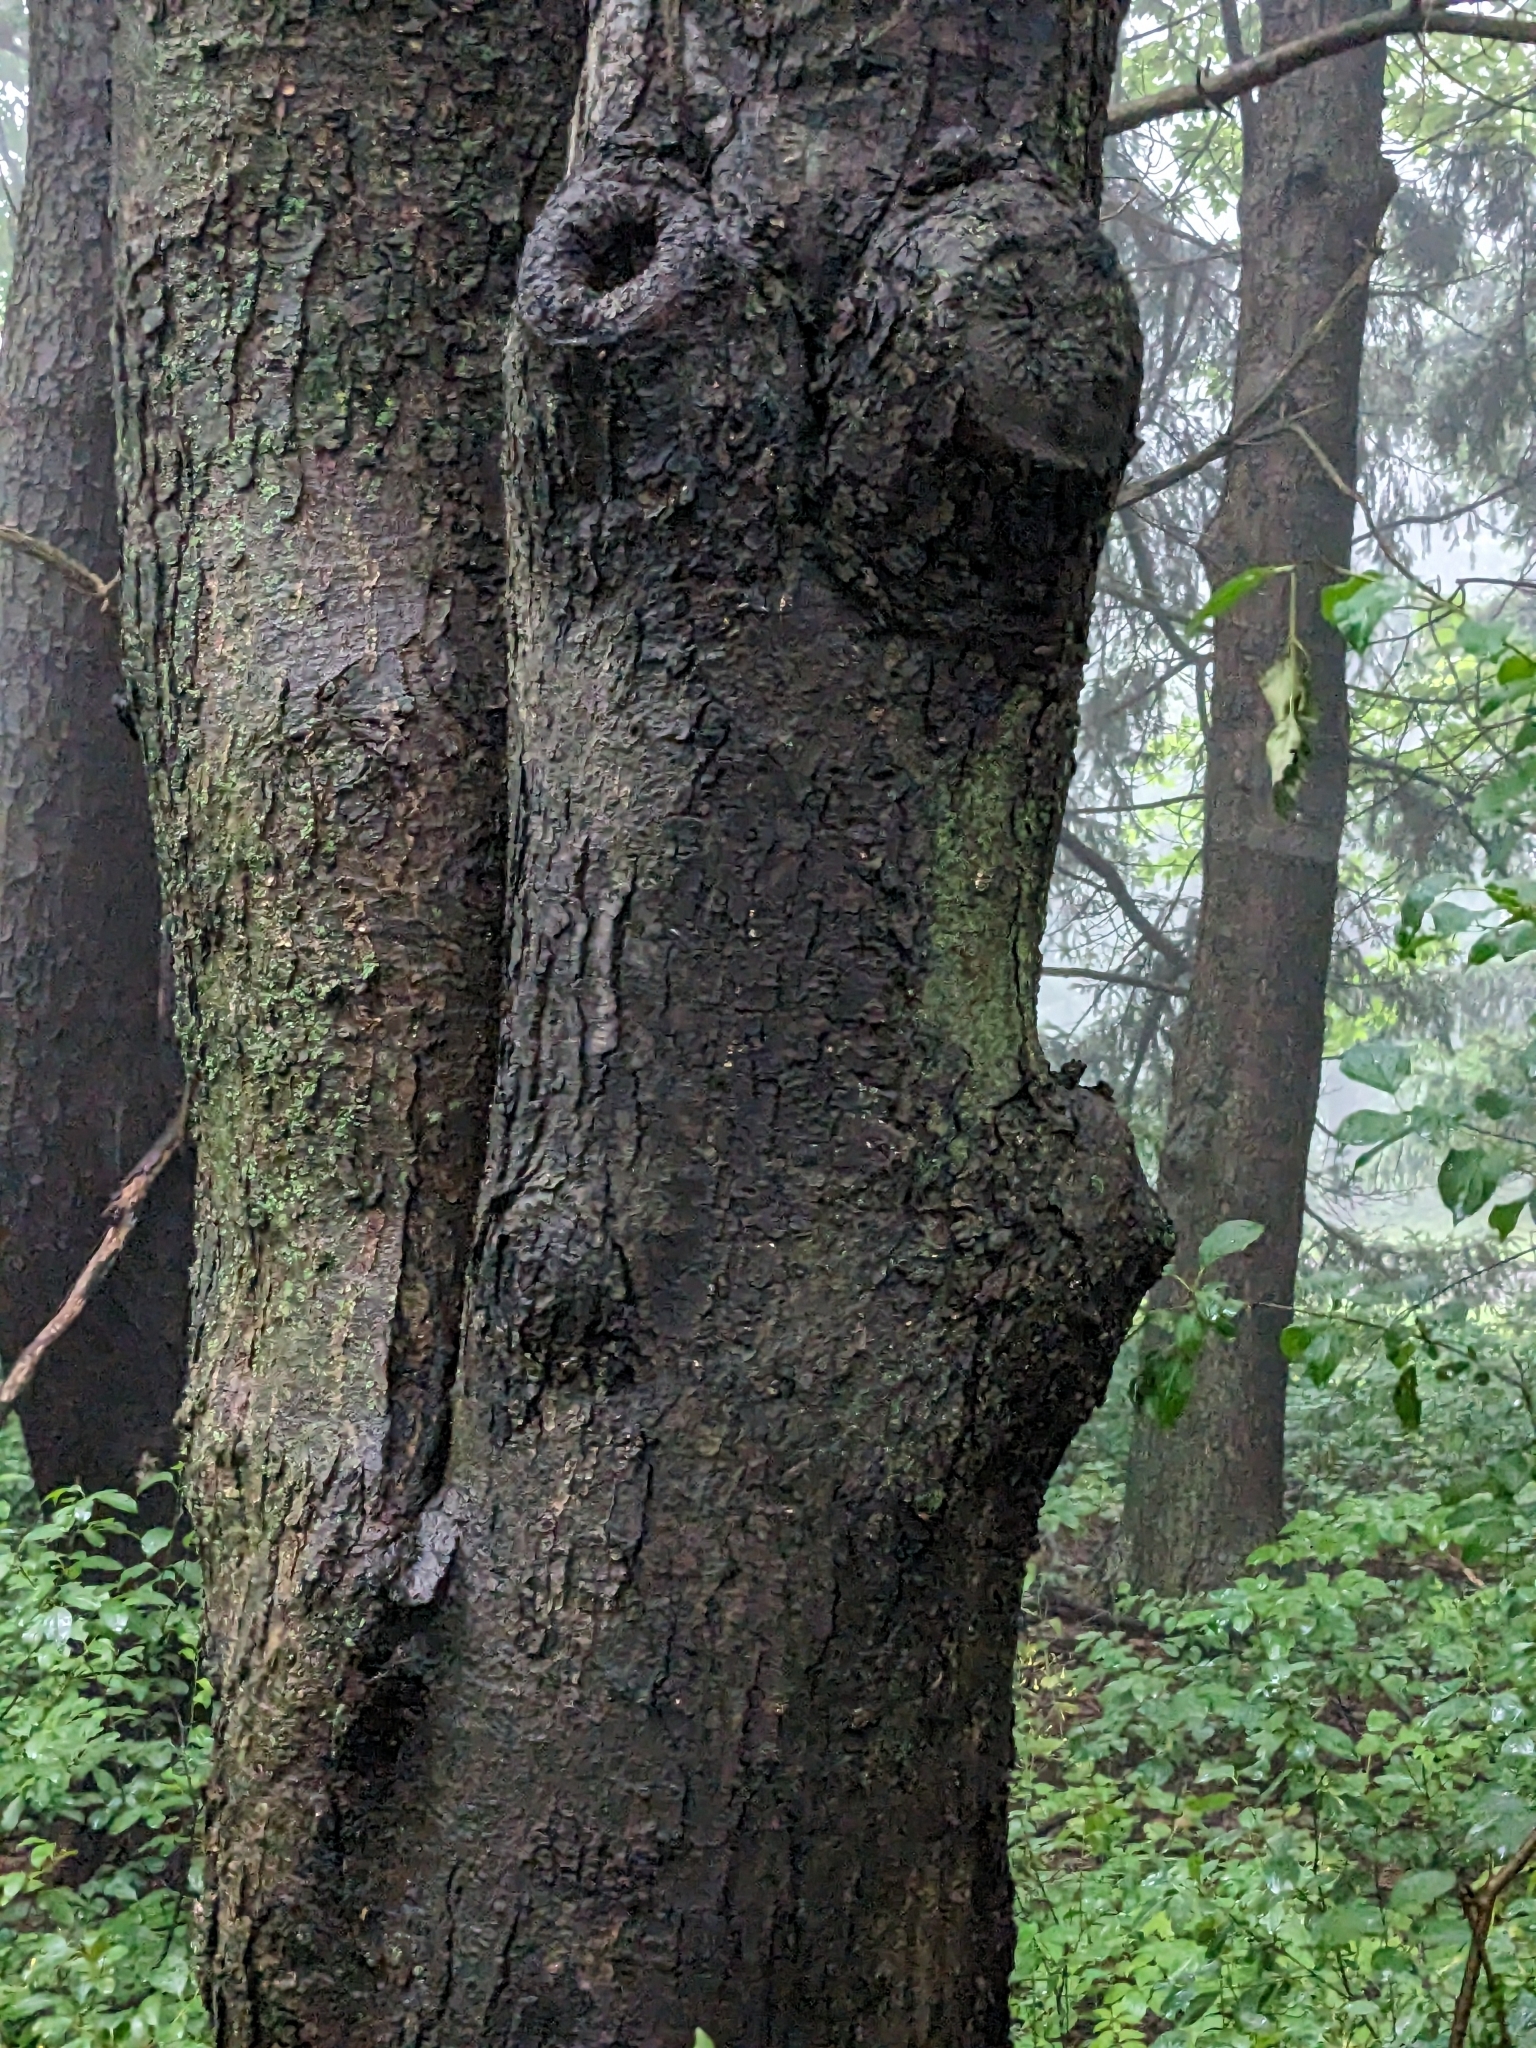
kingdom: Plantae
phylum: Tracheophyta
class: Magnoliopsida
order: Sapindales
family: Sapindaceae
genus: Acer
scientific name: Acer rubrum
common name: Red maple
